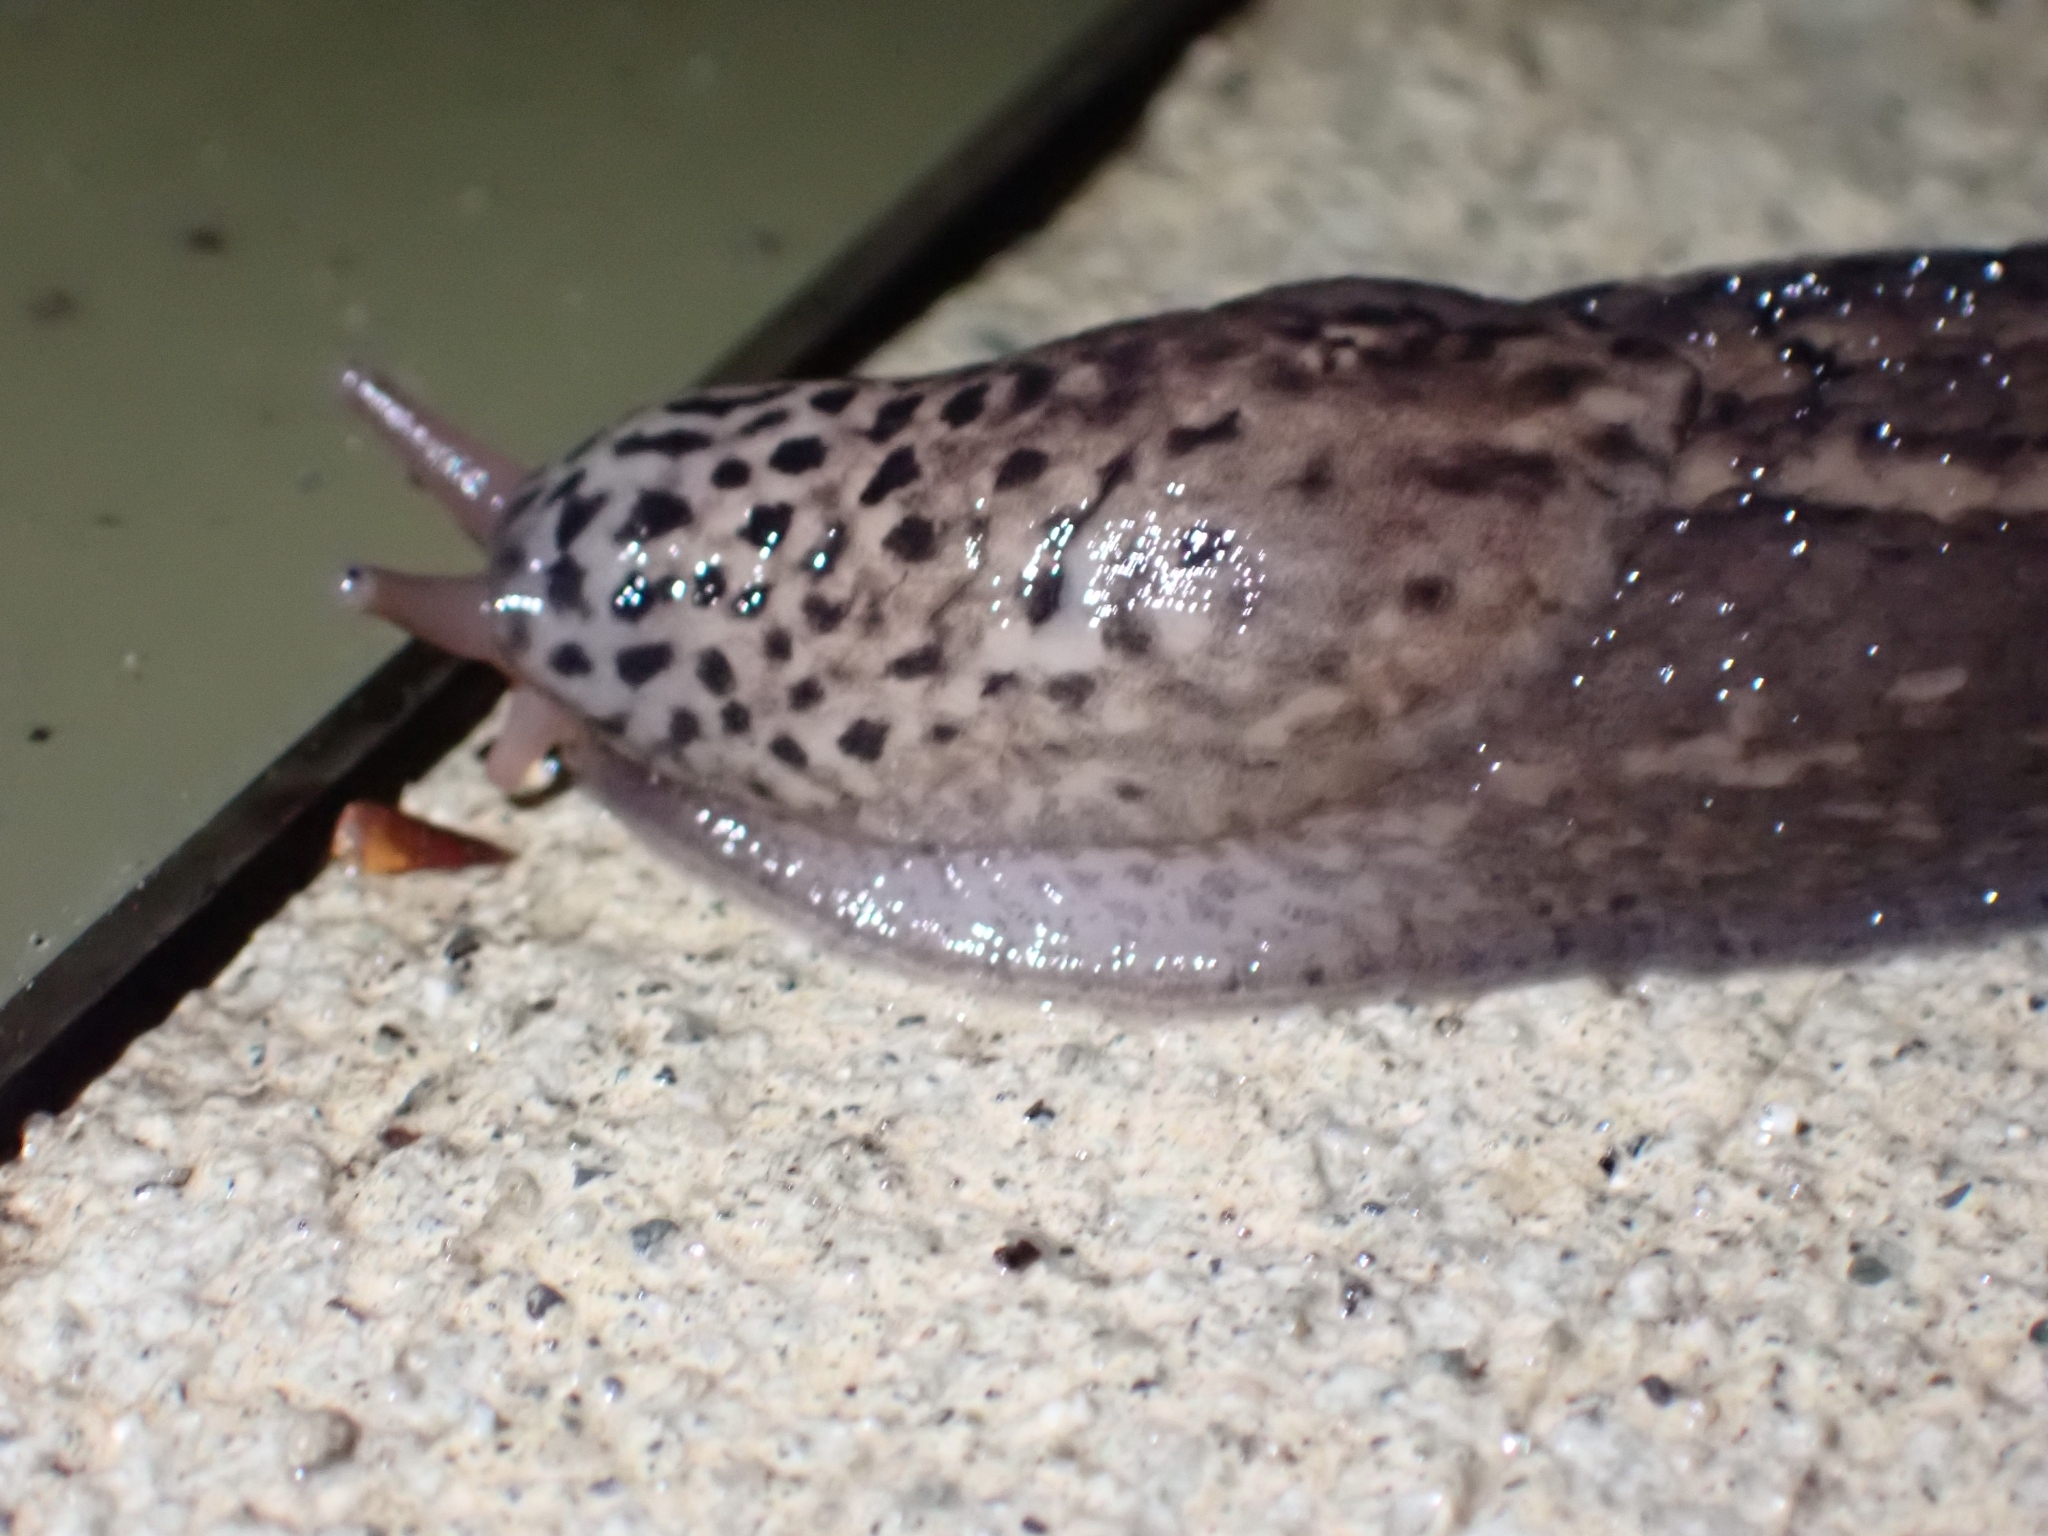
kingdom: Animalia
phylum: Mollusca
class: Gastropoda
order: Stylommatophora
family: Limacidae
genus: Limax
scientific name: Limax maximus
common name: Great grey slug
